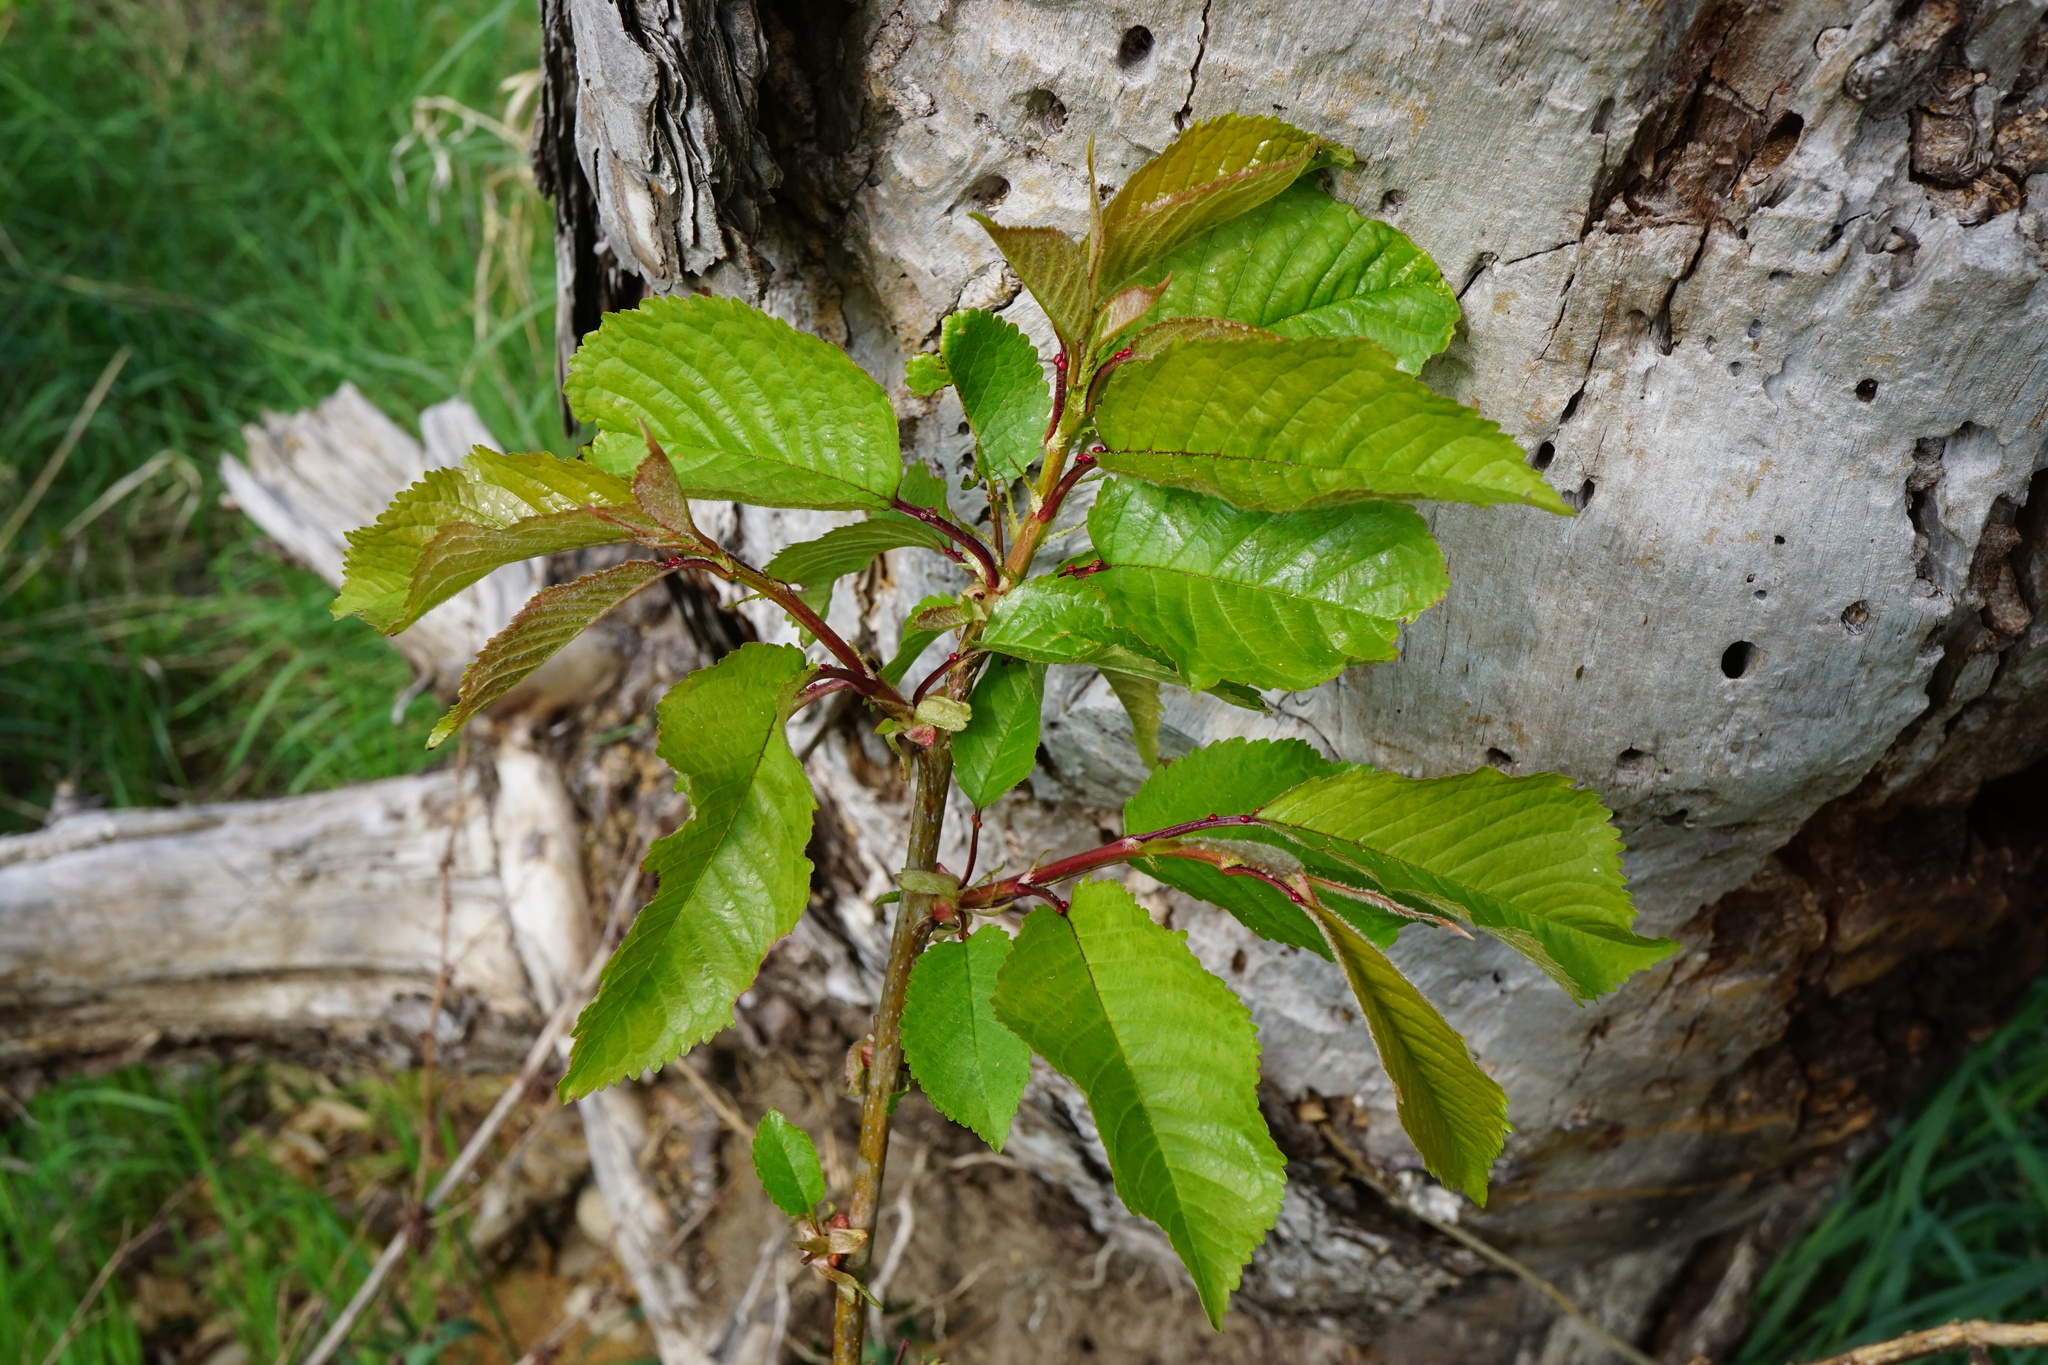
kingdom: Plantae
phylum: Tracheophyta
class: Magnoliopsida
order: Rosales
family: Rosaceae
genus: Prunus
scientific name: Prunus avium
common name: Sweet cherry
